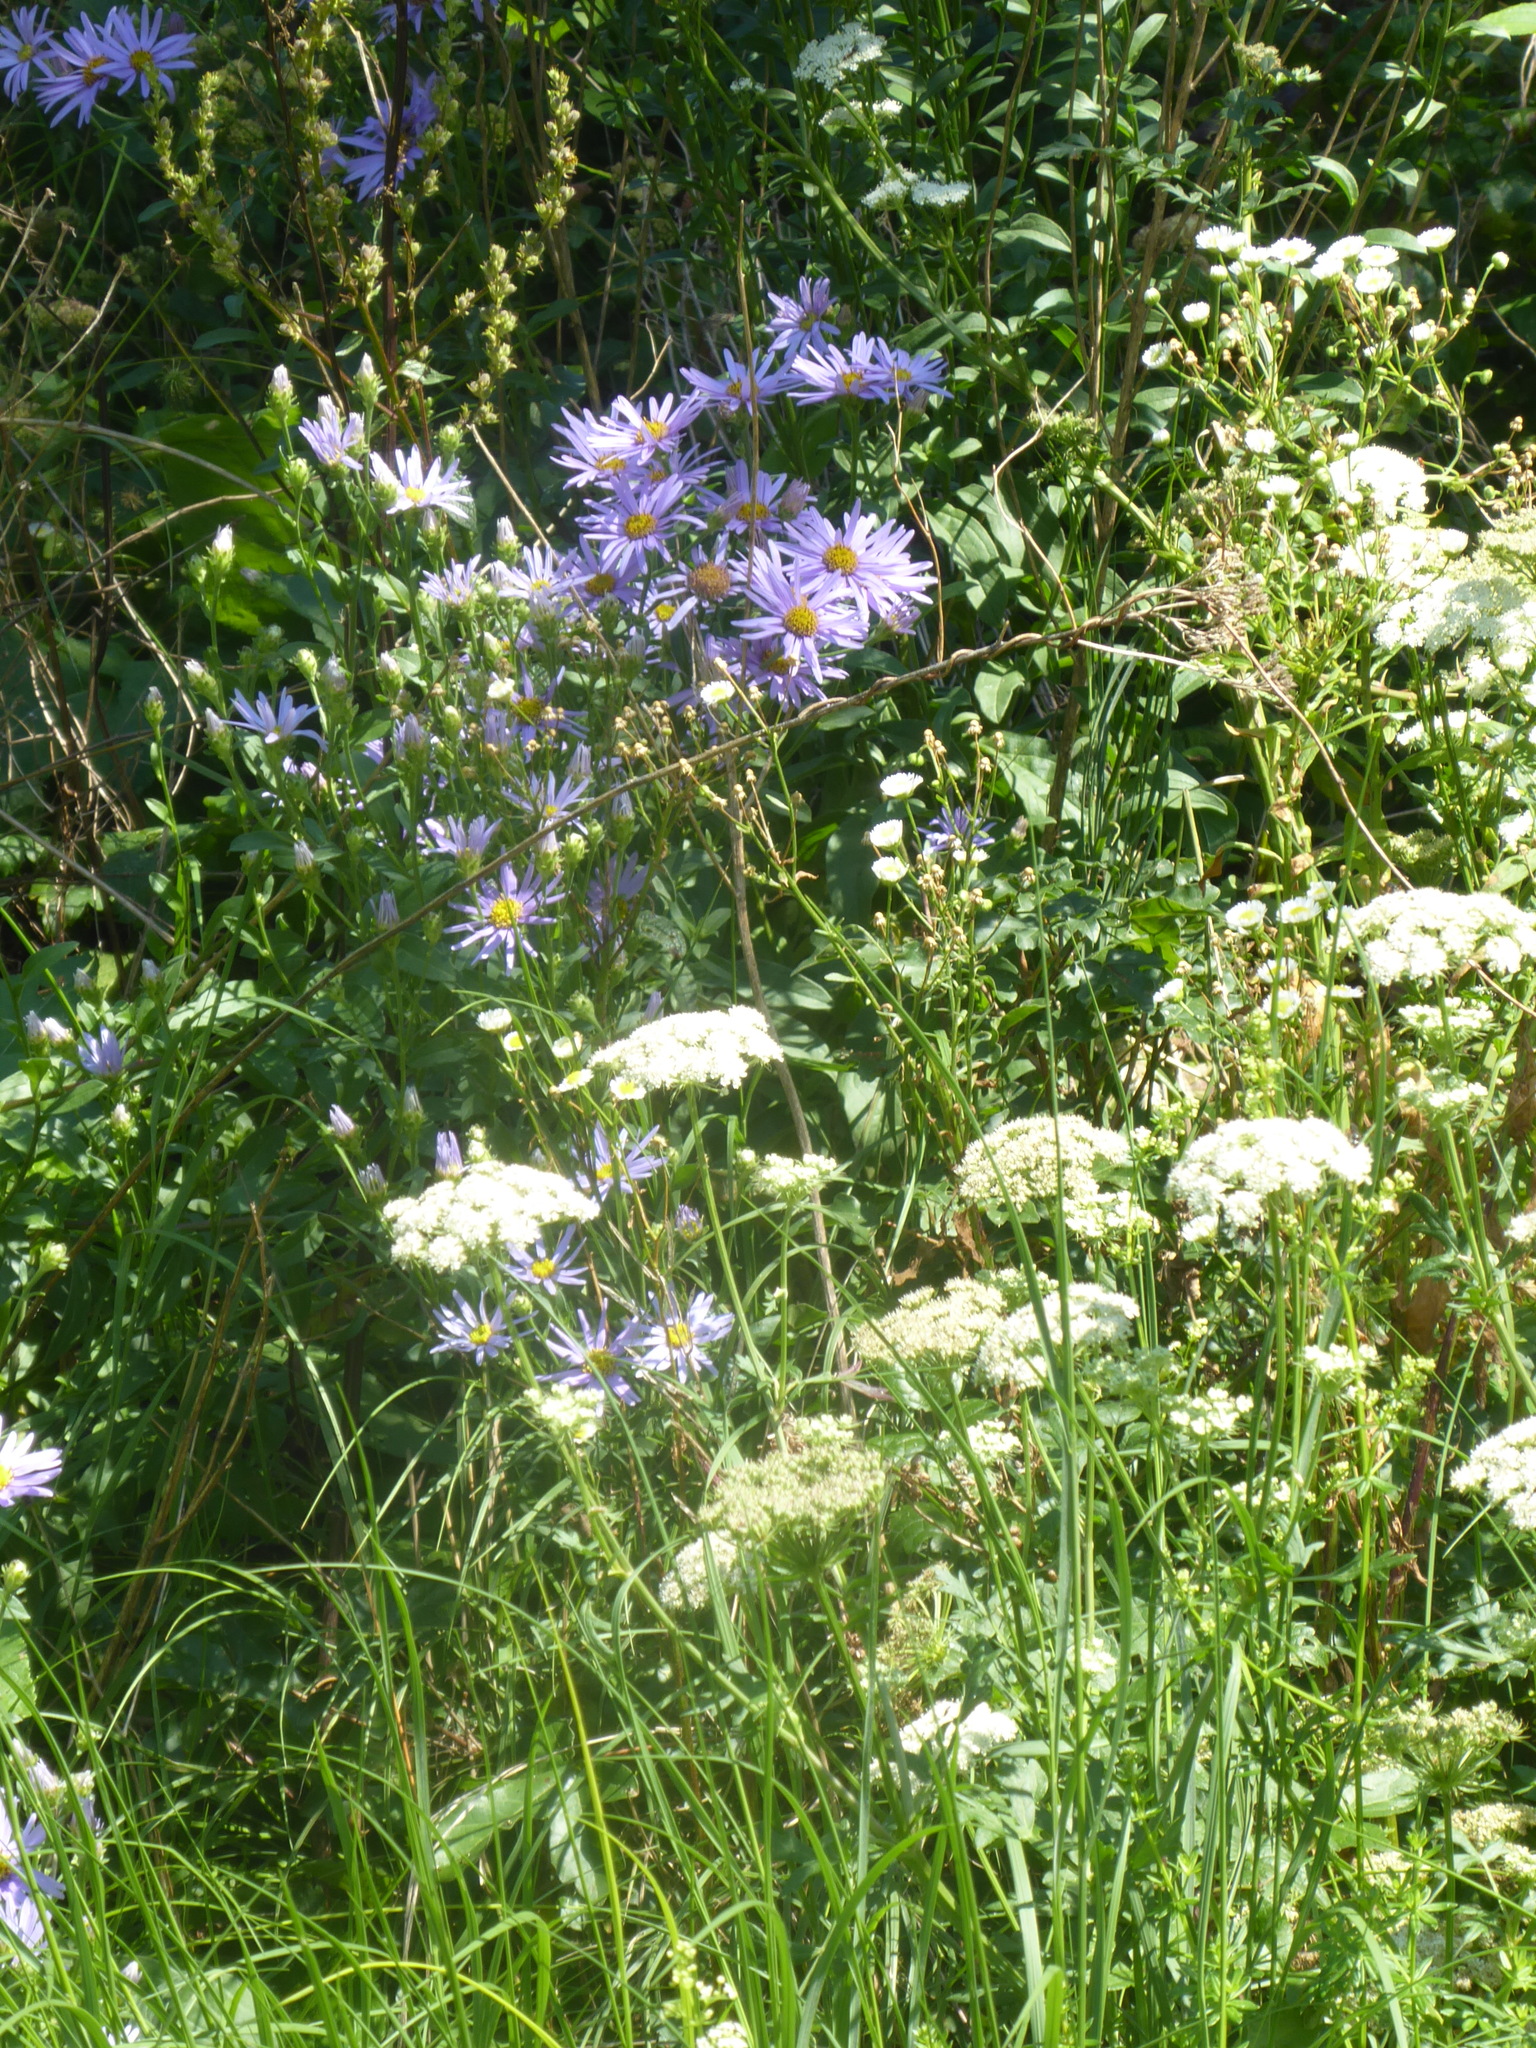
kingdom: Plantae
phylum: Tracheophyta
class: Magnoliopsida
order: Asterales
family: Asteraceae
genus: Aster
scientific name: Aster amellus
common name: European michaelmas daisy
